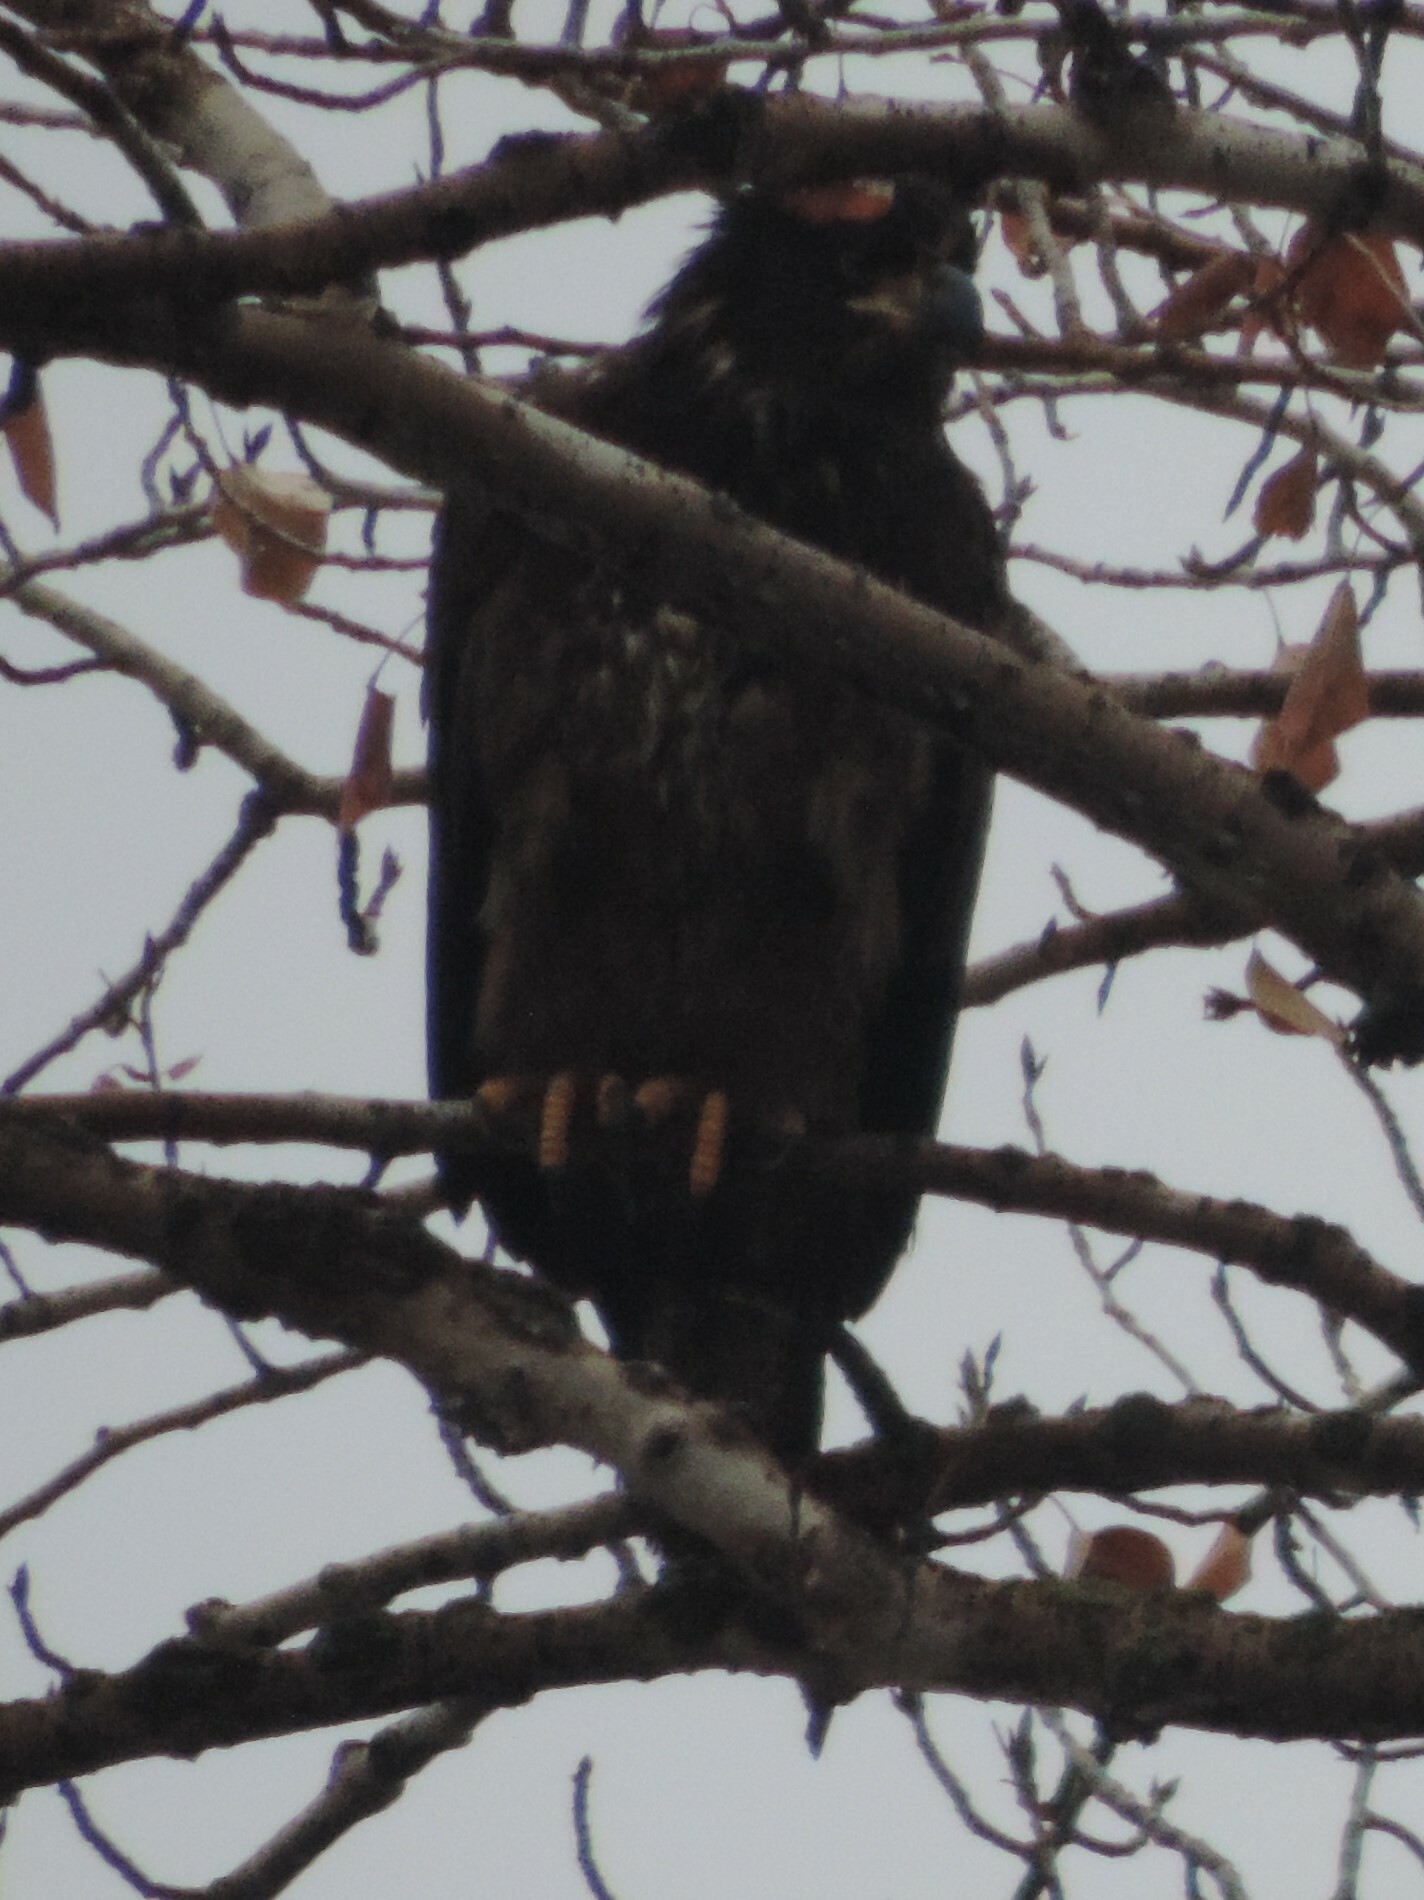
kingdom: Animalia
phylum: Chordata
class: Aves
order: Accipitriformes
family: Accipitridae
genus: Haliaeetus
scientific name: Haliaeetus leucocephalus
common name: Bald eagle
